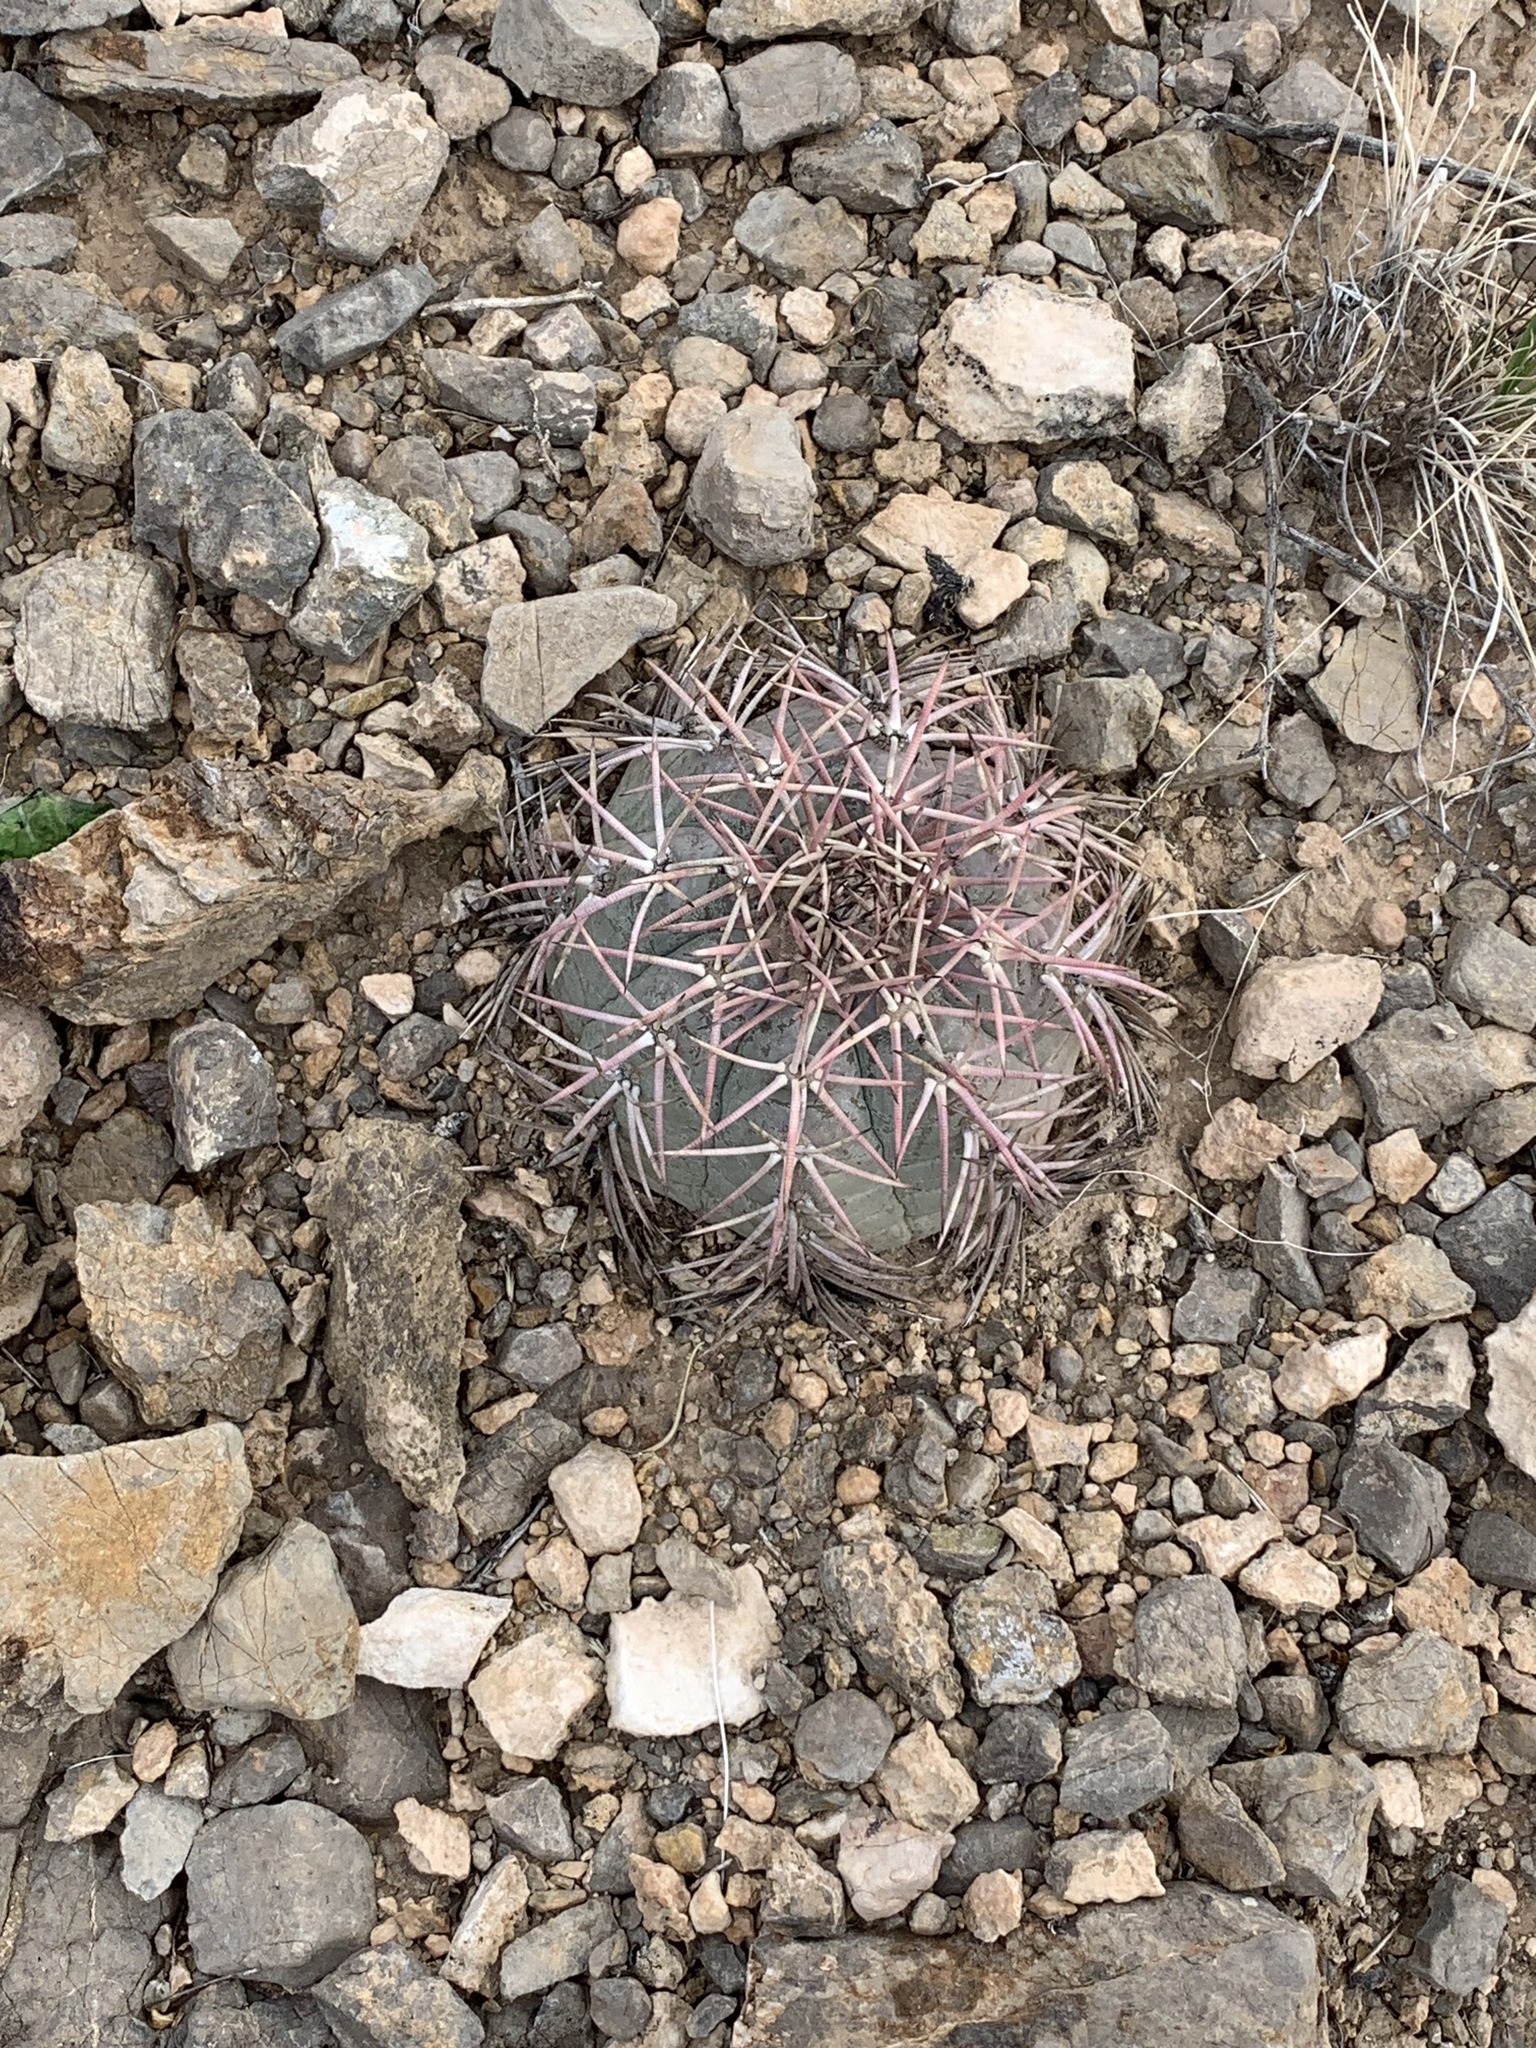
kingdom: Plantae
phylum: Tracheophyta
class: Magnoliopsida
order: Caryophyllales
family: Cactaceae
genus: Echinocactus
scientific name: Echinocactus horizonthalonius
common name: Devilshead
